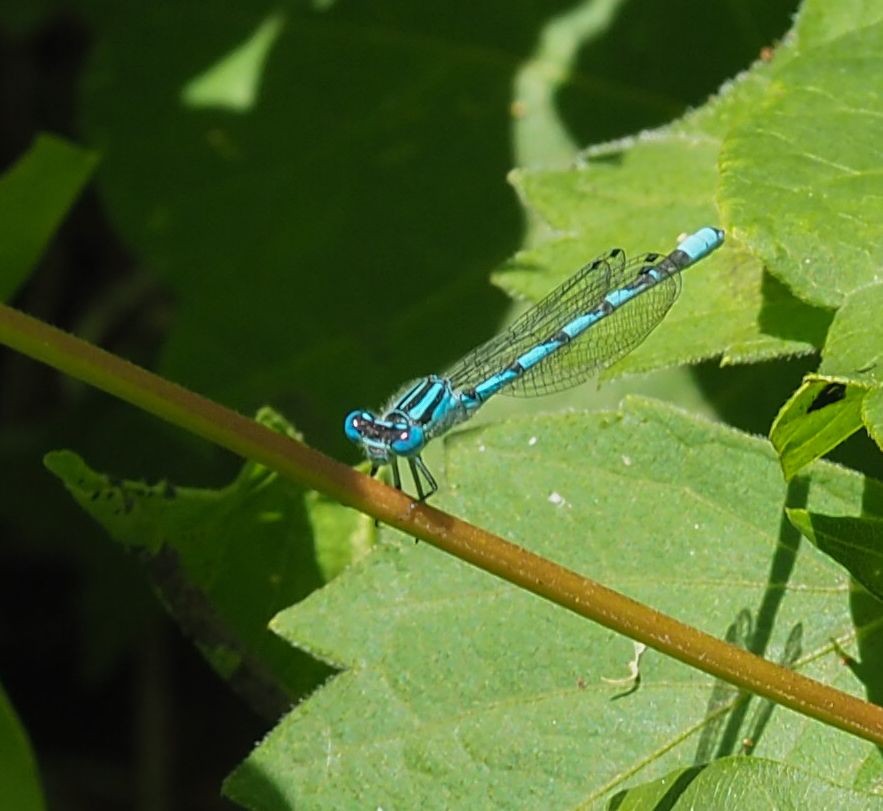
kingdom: Animalia
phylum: Arthropoda
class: Insecta
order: Odonata
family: Coenagrionidae
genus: Enallagma
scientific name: Enallagma durum
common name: Big bluet
